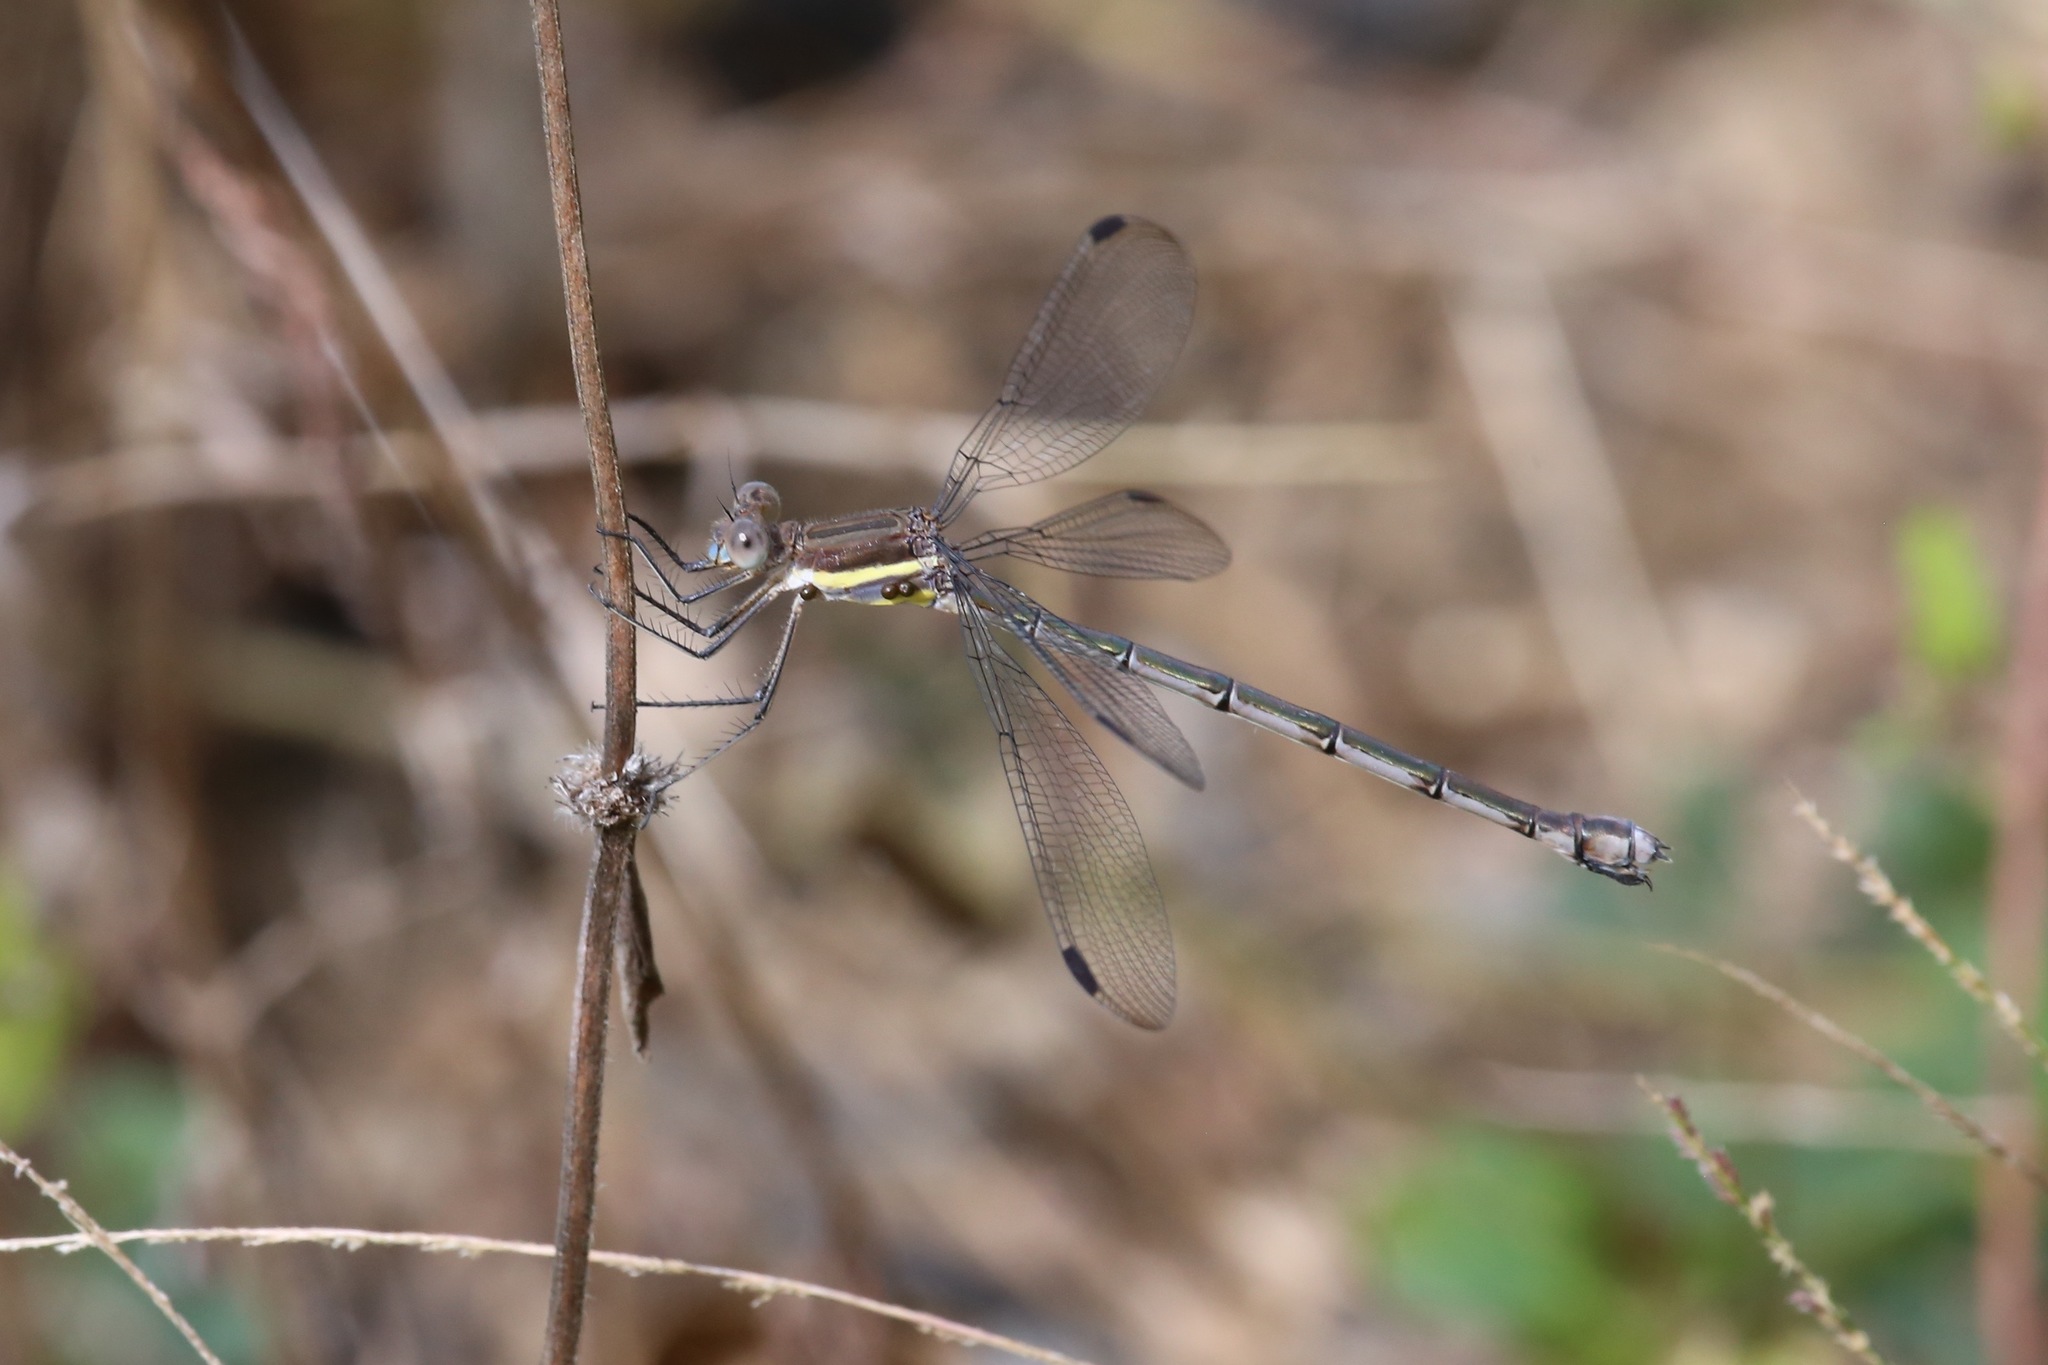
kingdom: Animalia
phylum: Arthropoda
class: Insecta
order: Odonata
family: Lestidae
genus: Archilestes
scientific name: Archilestes grandis
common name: Great spreadwing
